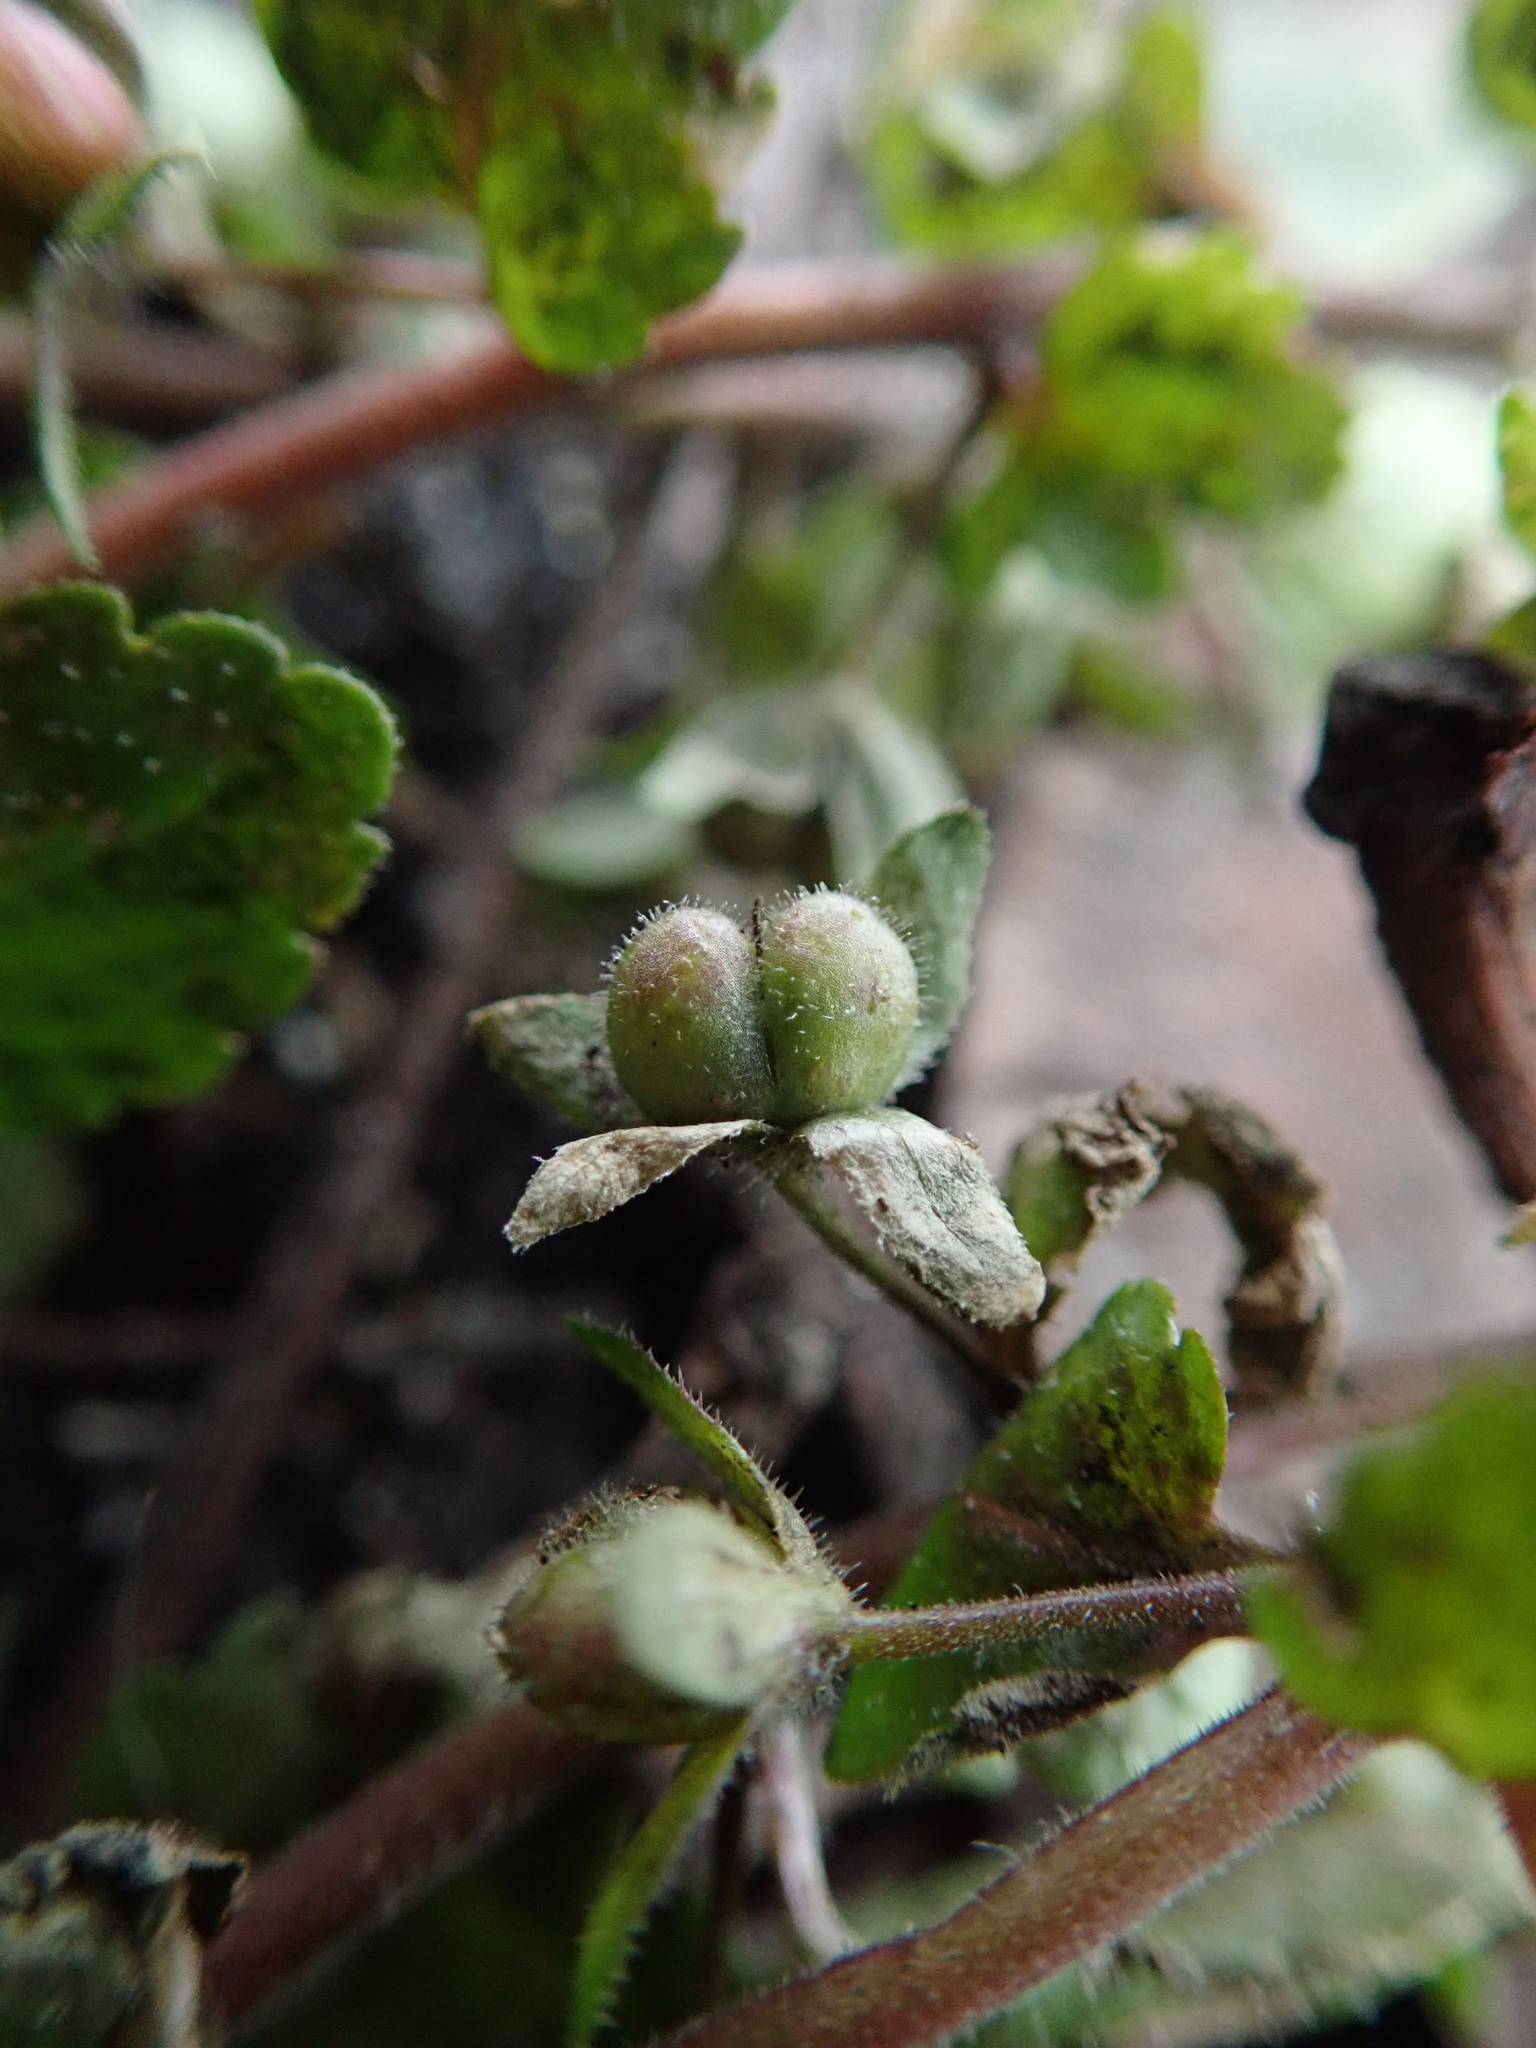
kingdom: Plantae
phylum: Tracheophyta
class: Magnoliopsida
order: Lamiales
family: Plantaginaceae
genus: Veronica
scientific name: Veronica agrestis
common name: Green field-speedwell
